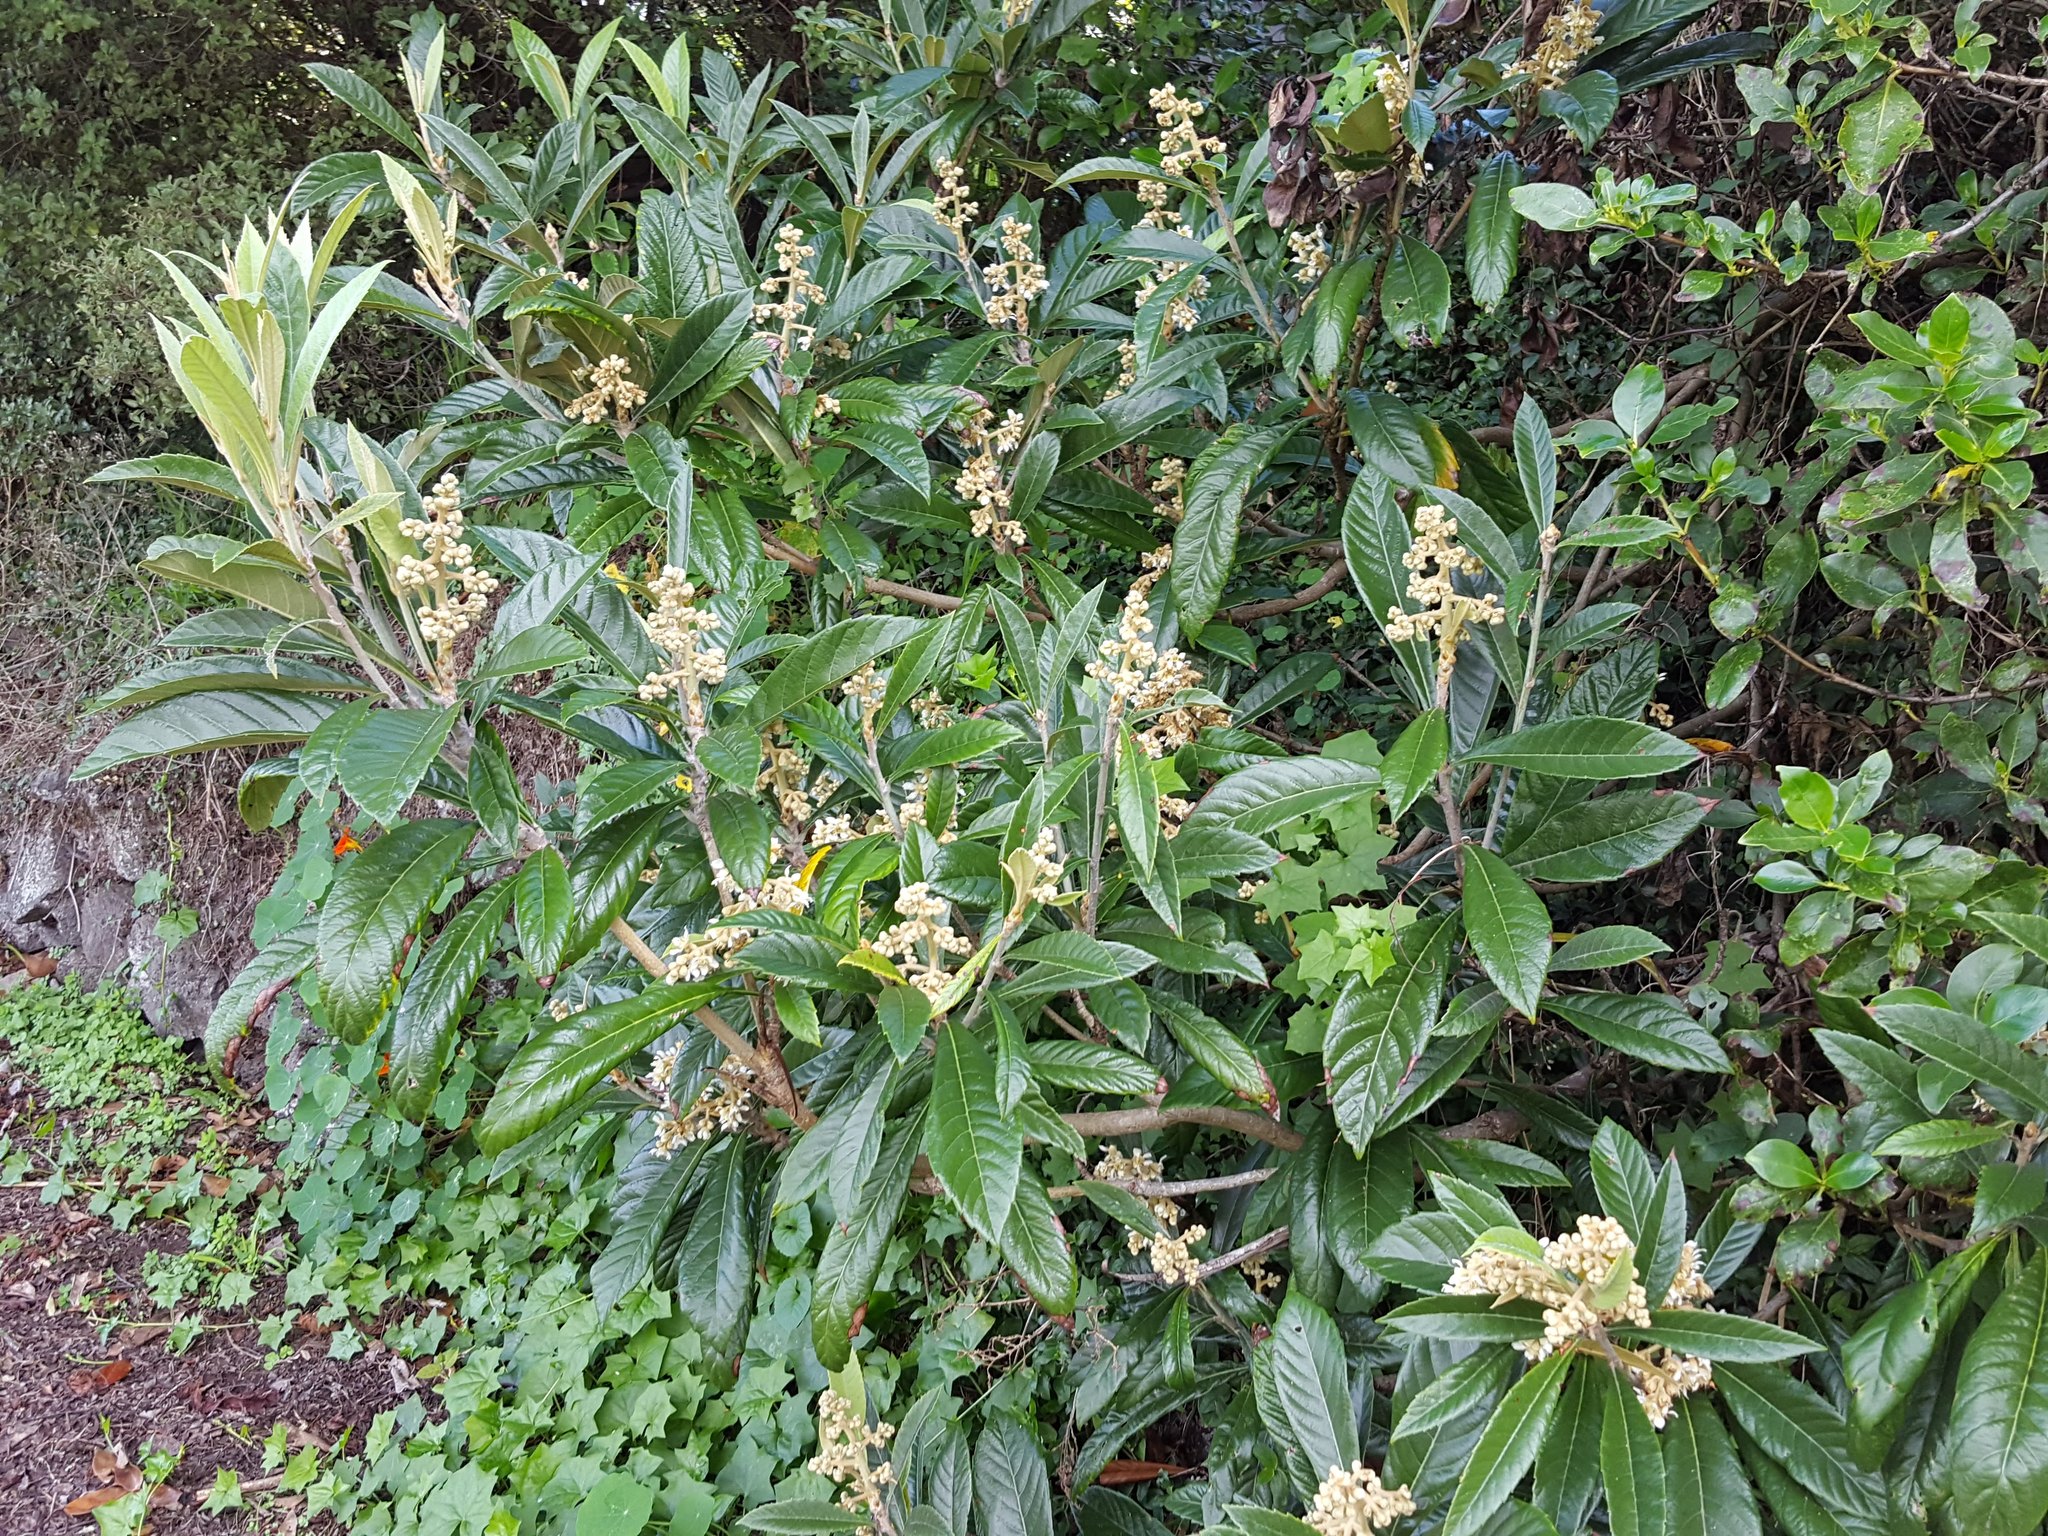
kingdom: Plantae
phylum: Tracheophyta
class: Magnoliopsida
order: Rosales
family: Rosaceae
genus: Rhaphiolepis
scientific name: Rhaphiolepis bibas
